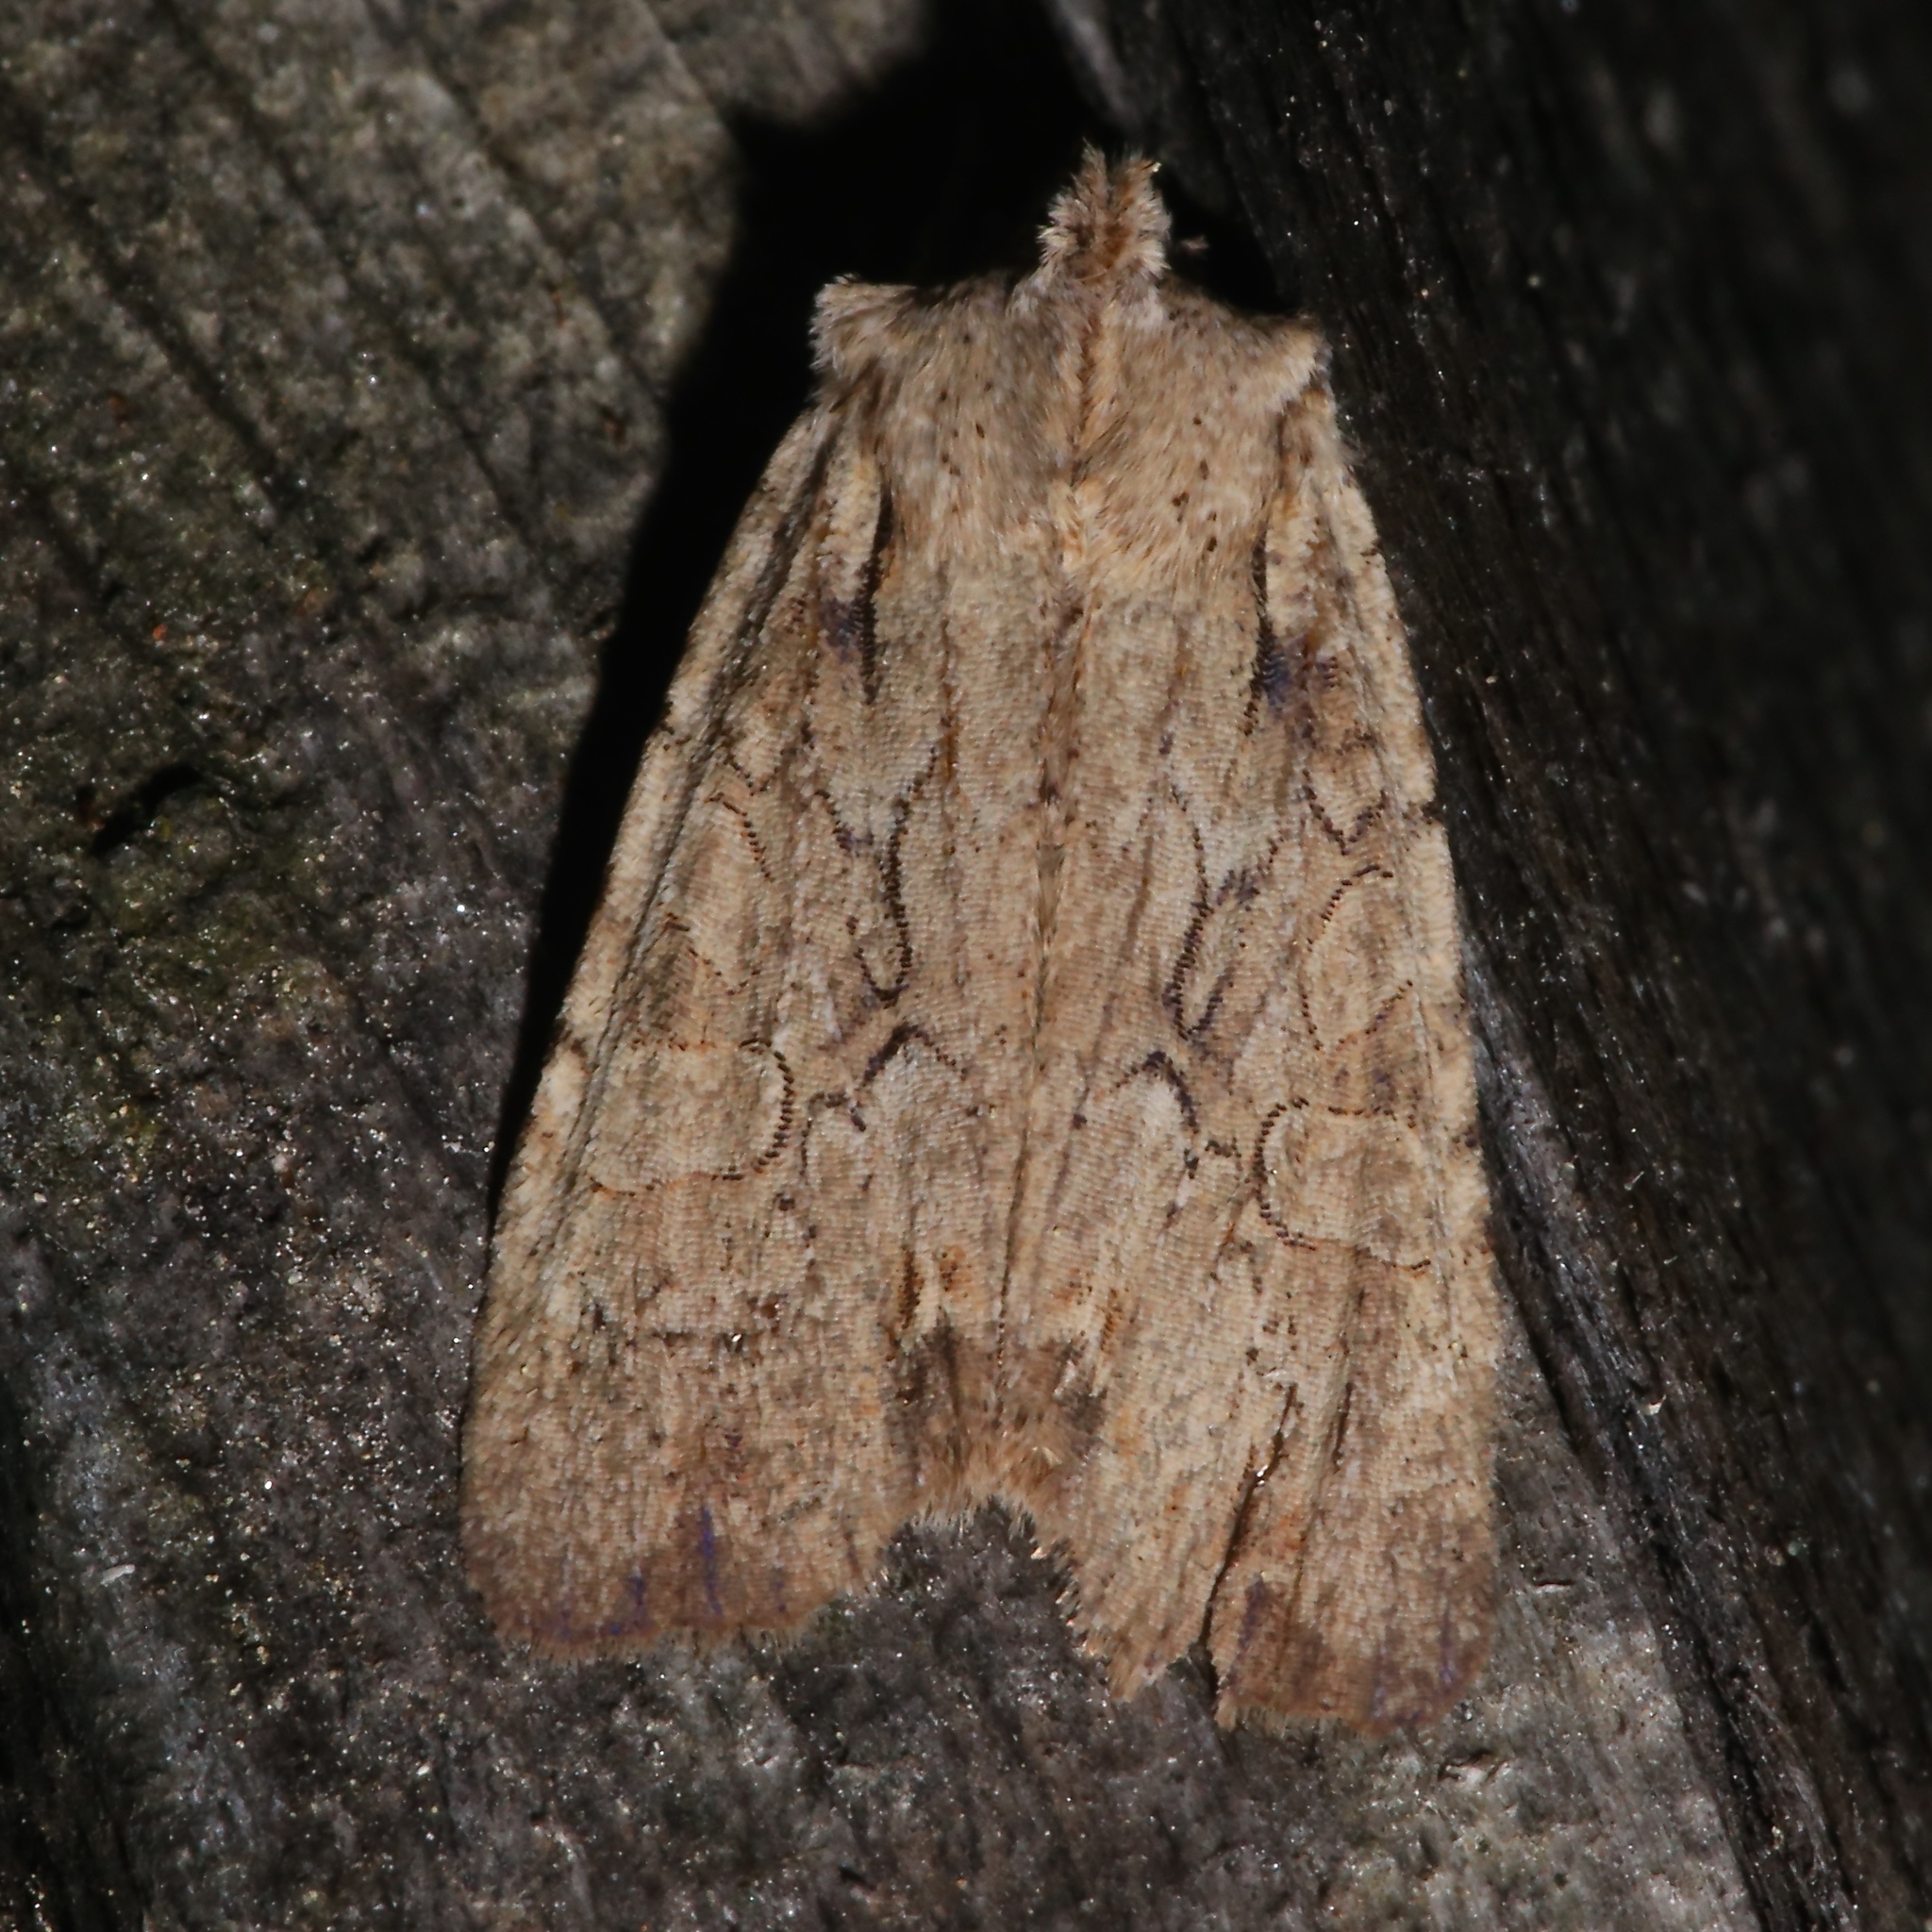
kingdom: Animalia
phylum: Arthropoda
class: Insecta
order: Lepidoptera
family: Noctuidae
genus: Lithophane
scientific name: Lithophane disposita
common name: Dashed gray pinion moth
